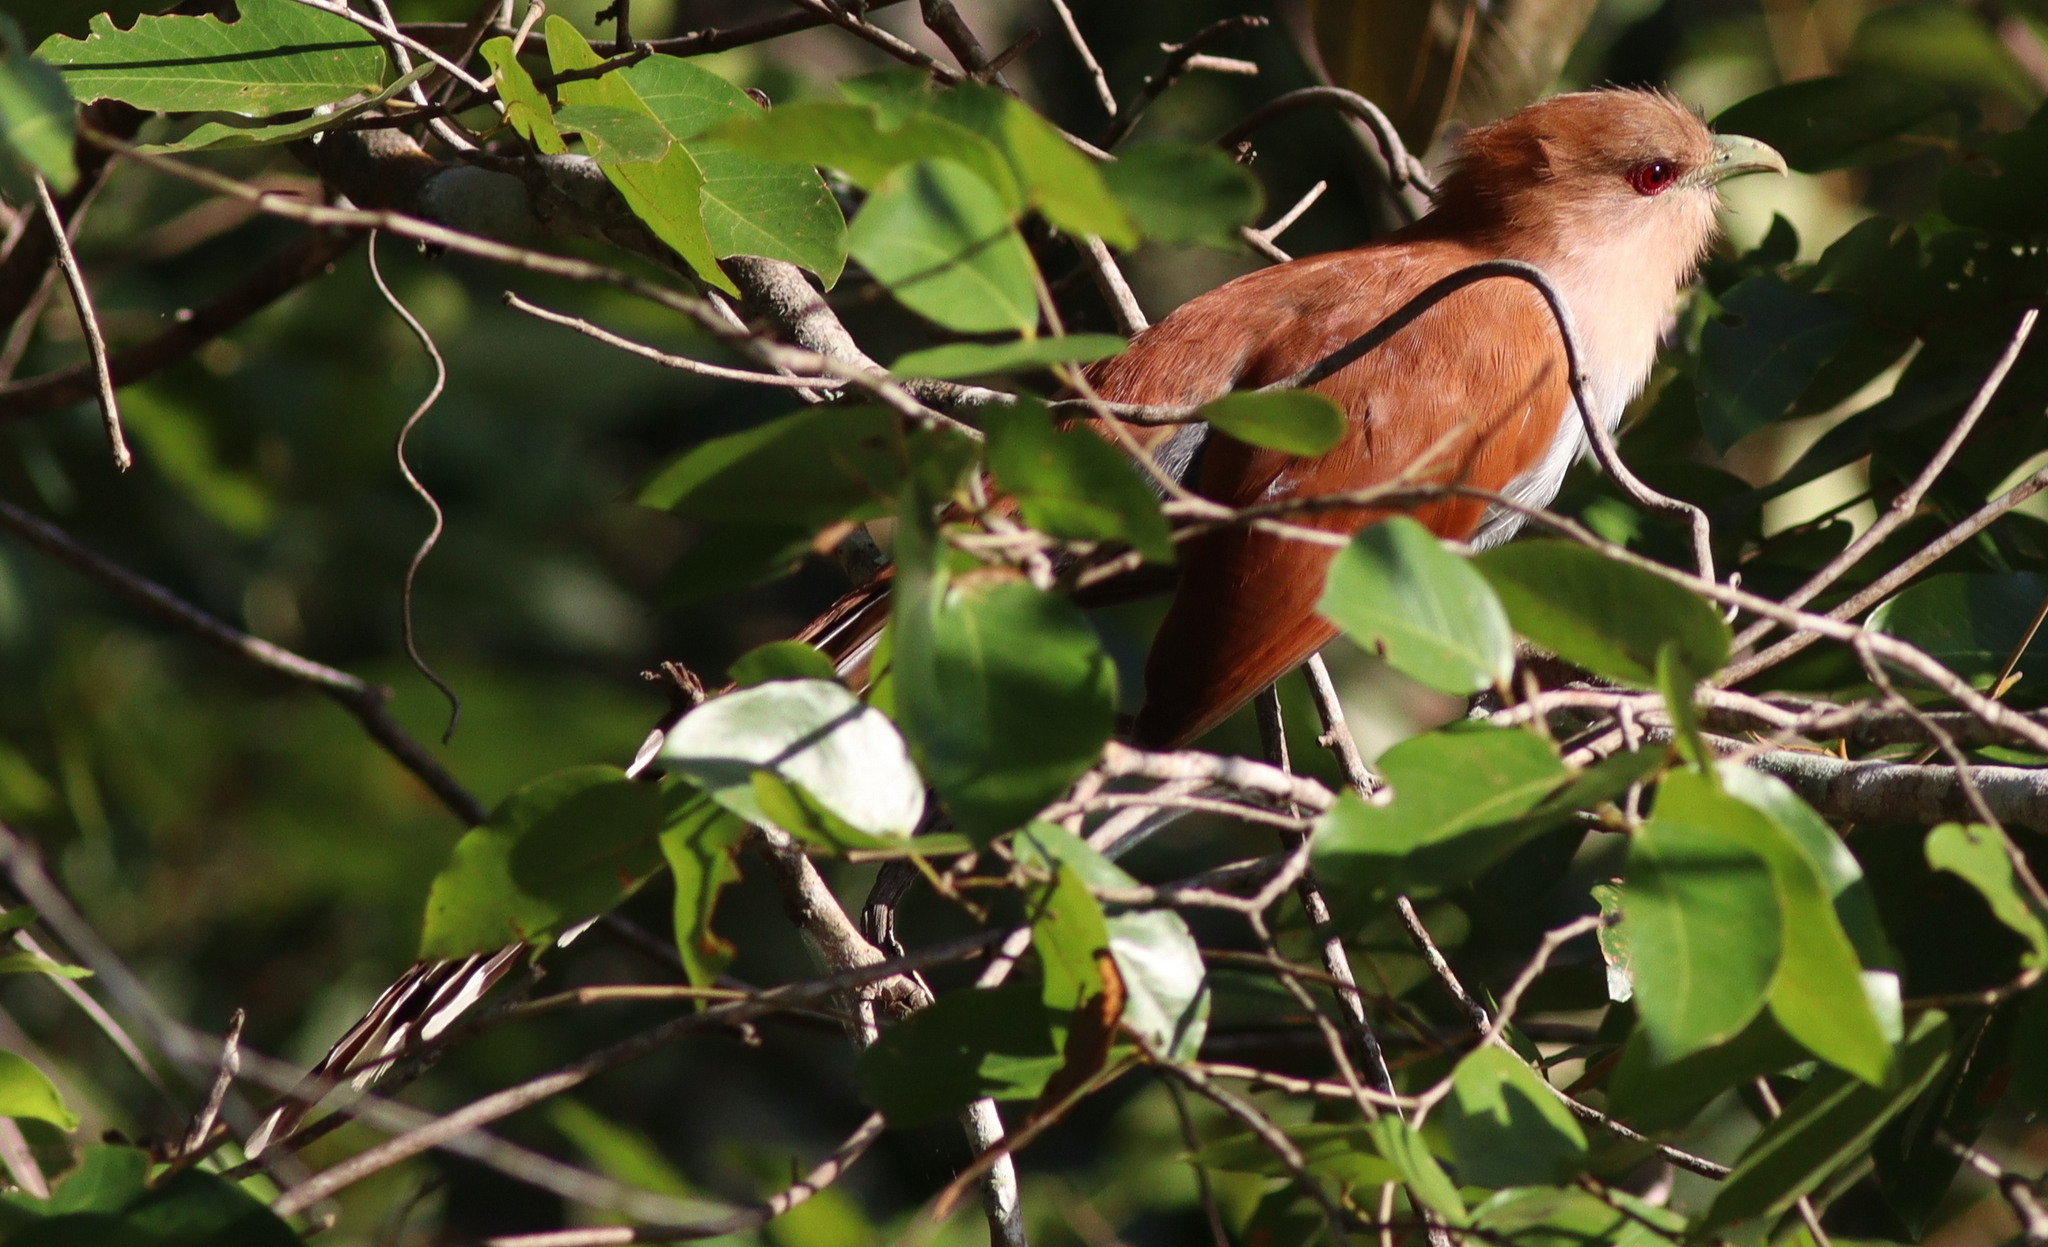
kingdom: Animalia
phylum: Chordata
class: Aves
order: Cuculiformes
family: Cuculidae
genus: Piaya
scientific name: Piaya cayana
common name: Squirrel cuckoo
